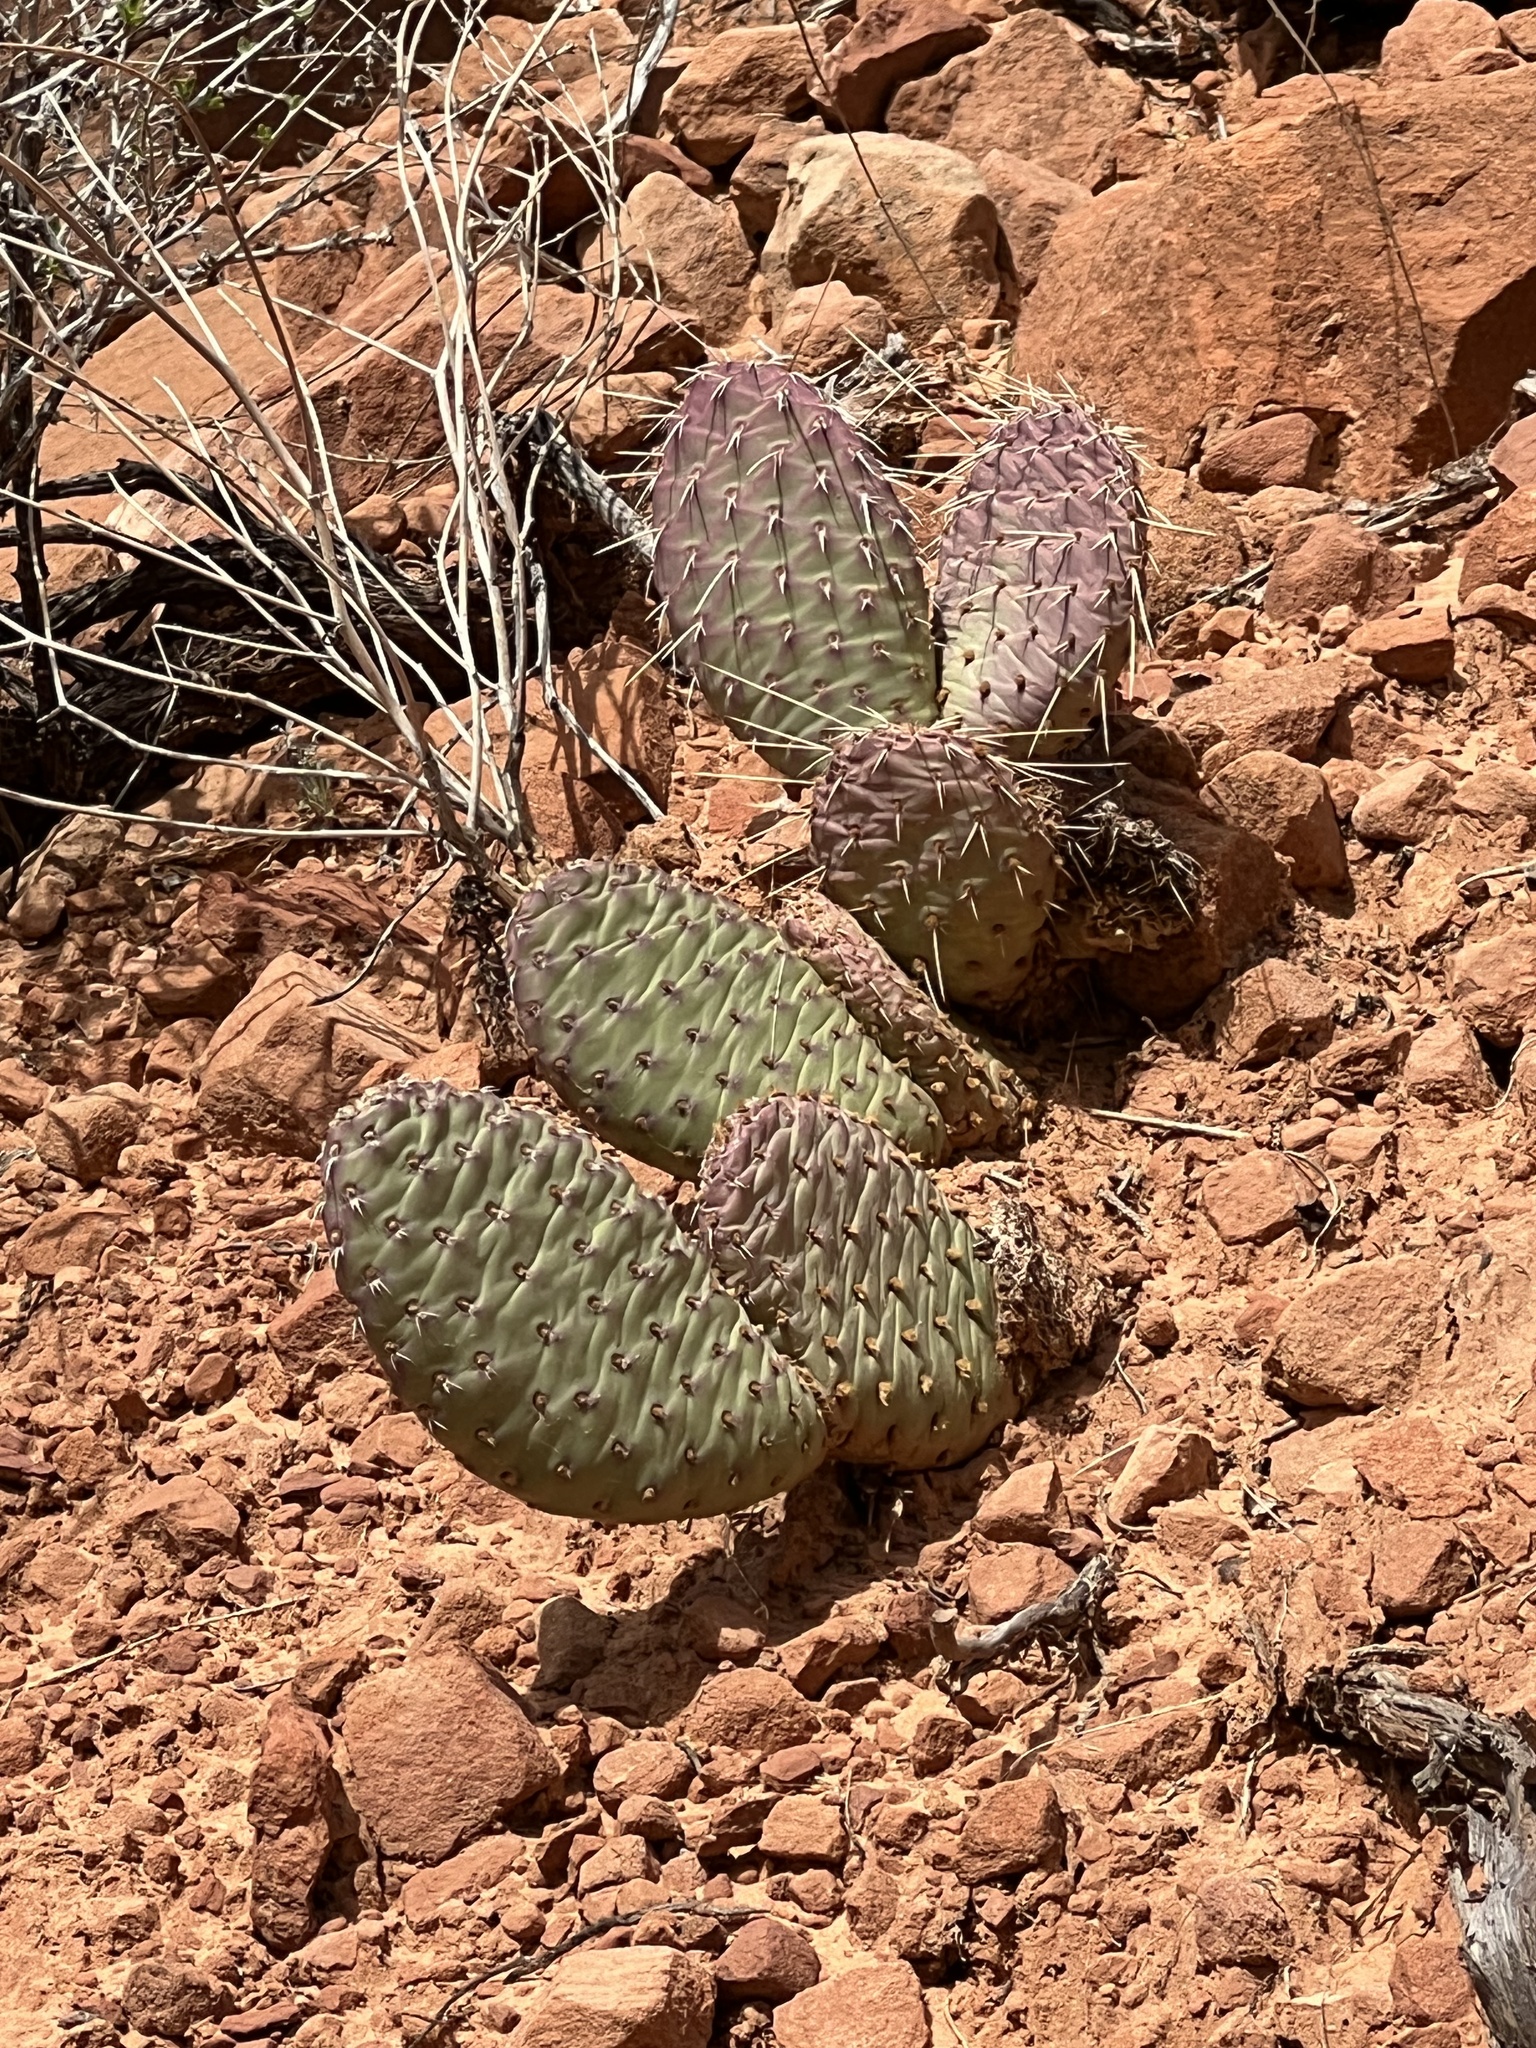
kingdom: Plantae
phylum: Tracheophyta
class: Magnoliopsida
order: Caryophyllales
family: Cactaceae
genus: Opuntia
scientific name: Opuntia aurea
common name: Golden prickly-pear
